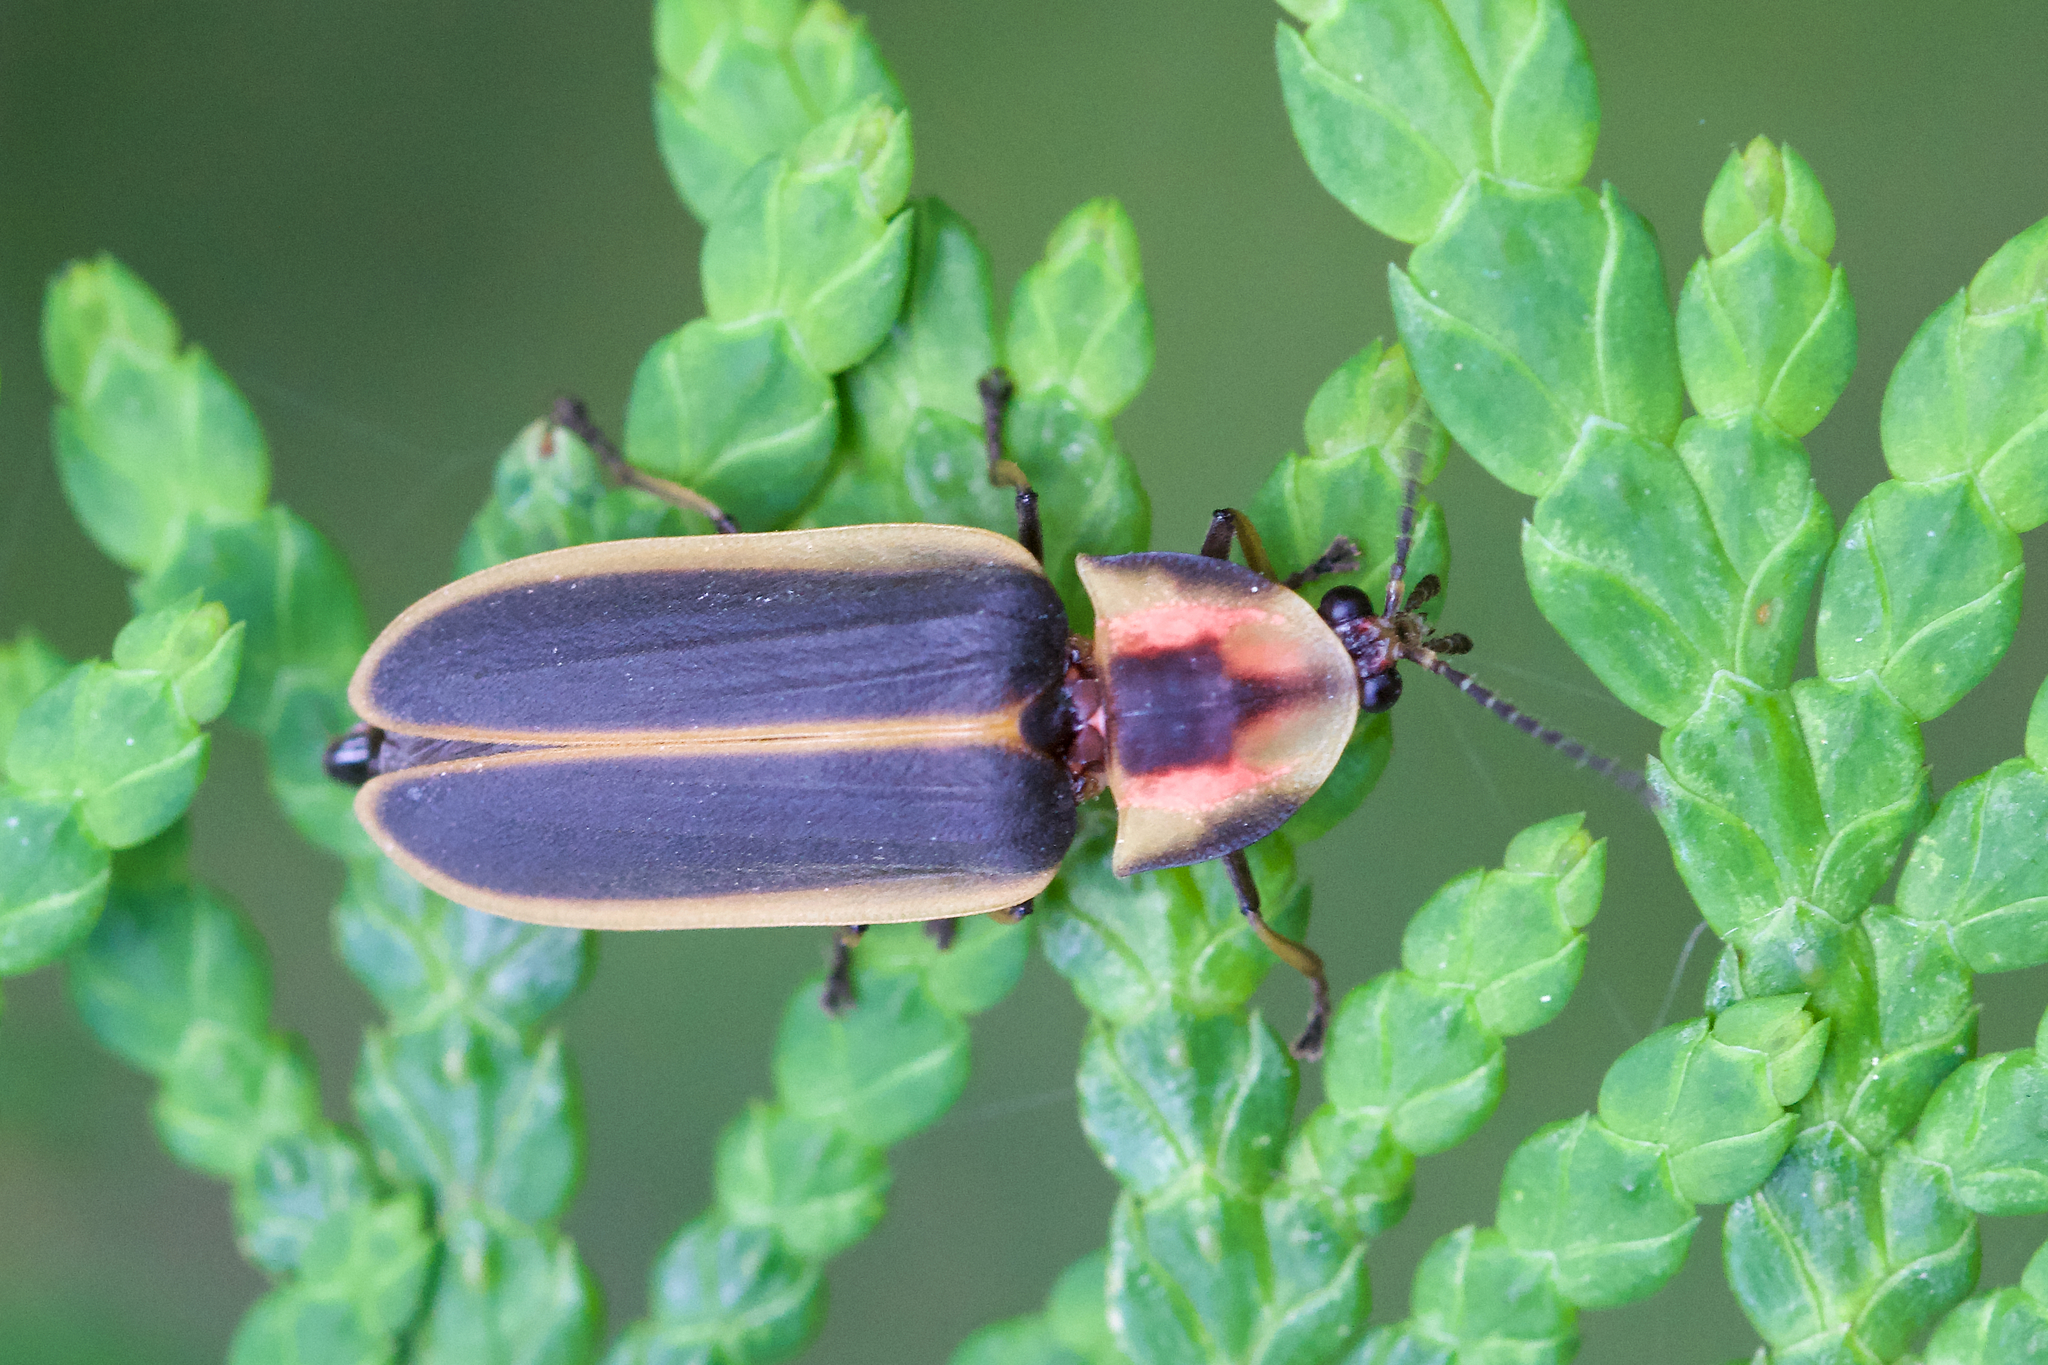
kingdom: Animalia
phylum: Arthropoda
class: Insecta
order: Coleoptera
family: Lampyridae
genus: Pyractomena
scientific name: Pyractomena angulata
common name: Candle firefly
